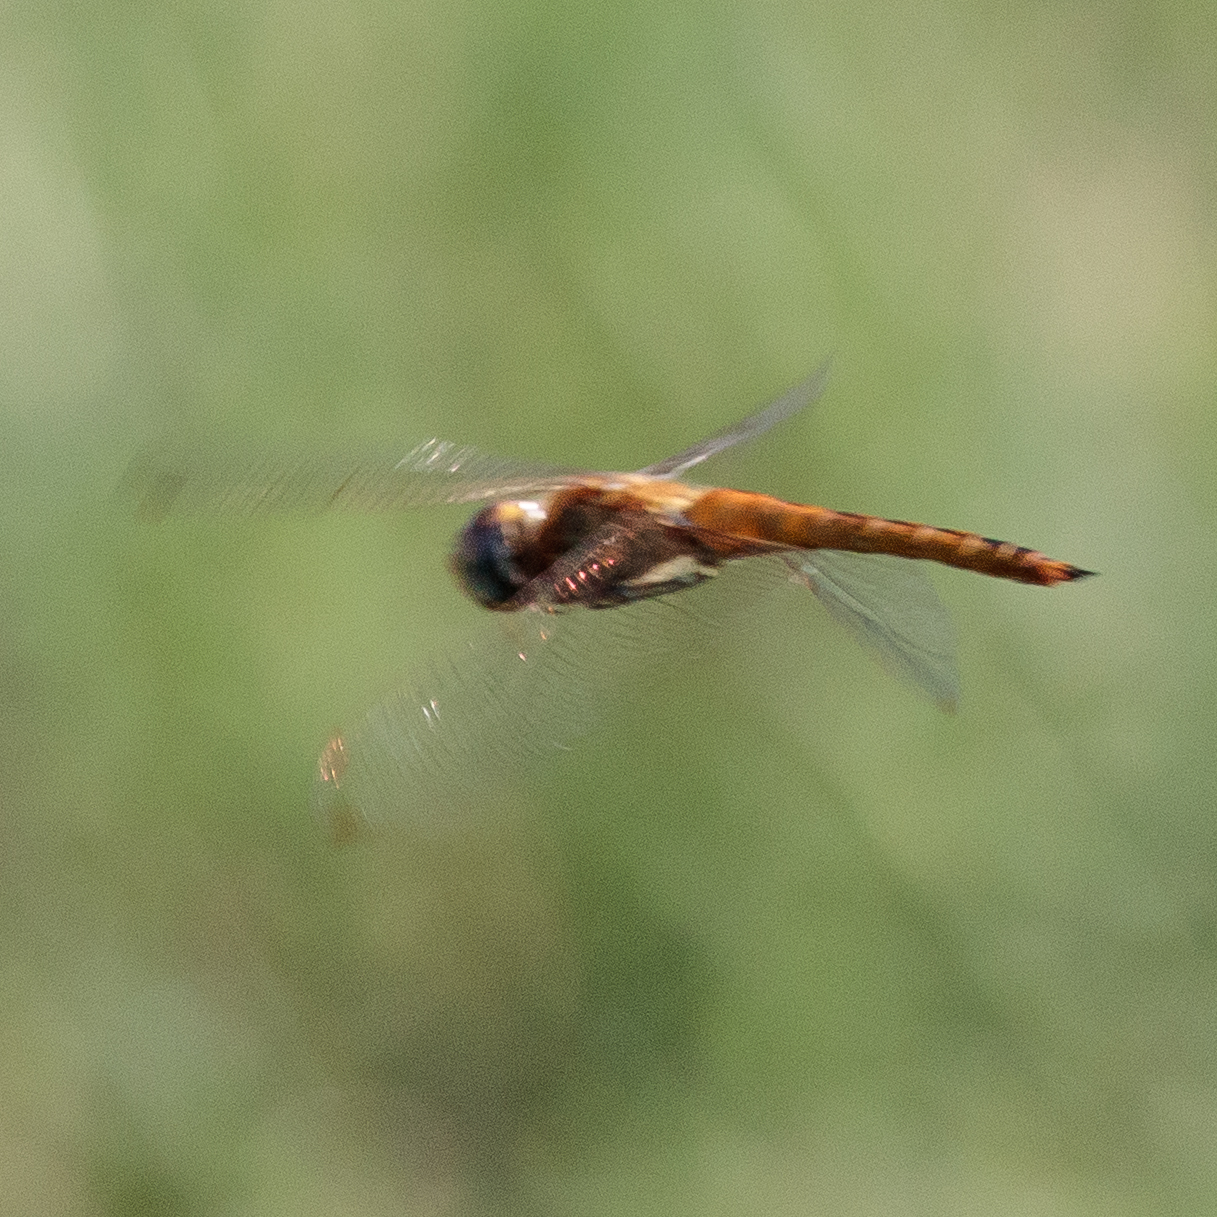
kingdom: Animalia
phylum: Arthropoda
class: Insecta
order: Odonata
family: Libellulidae
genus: Pantala
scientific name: Pantala flavescens
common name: Wandering glider
